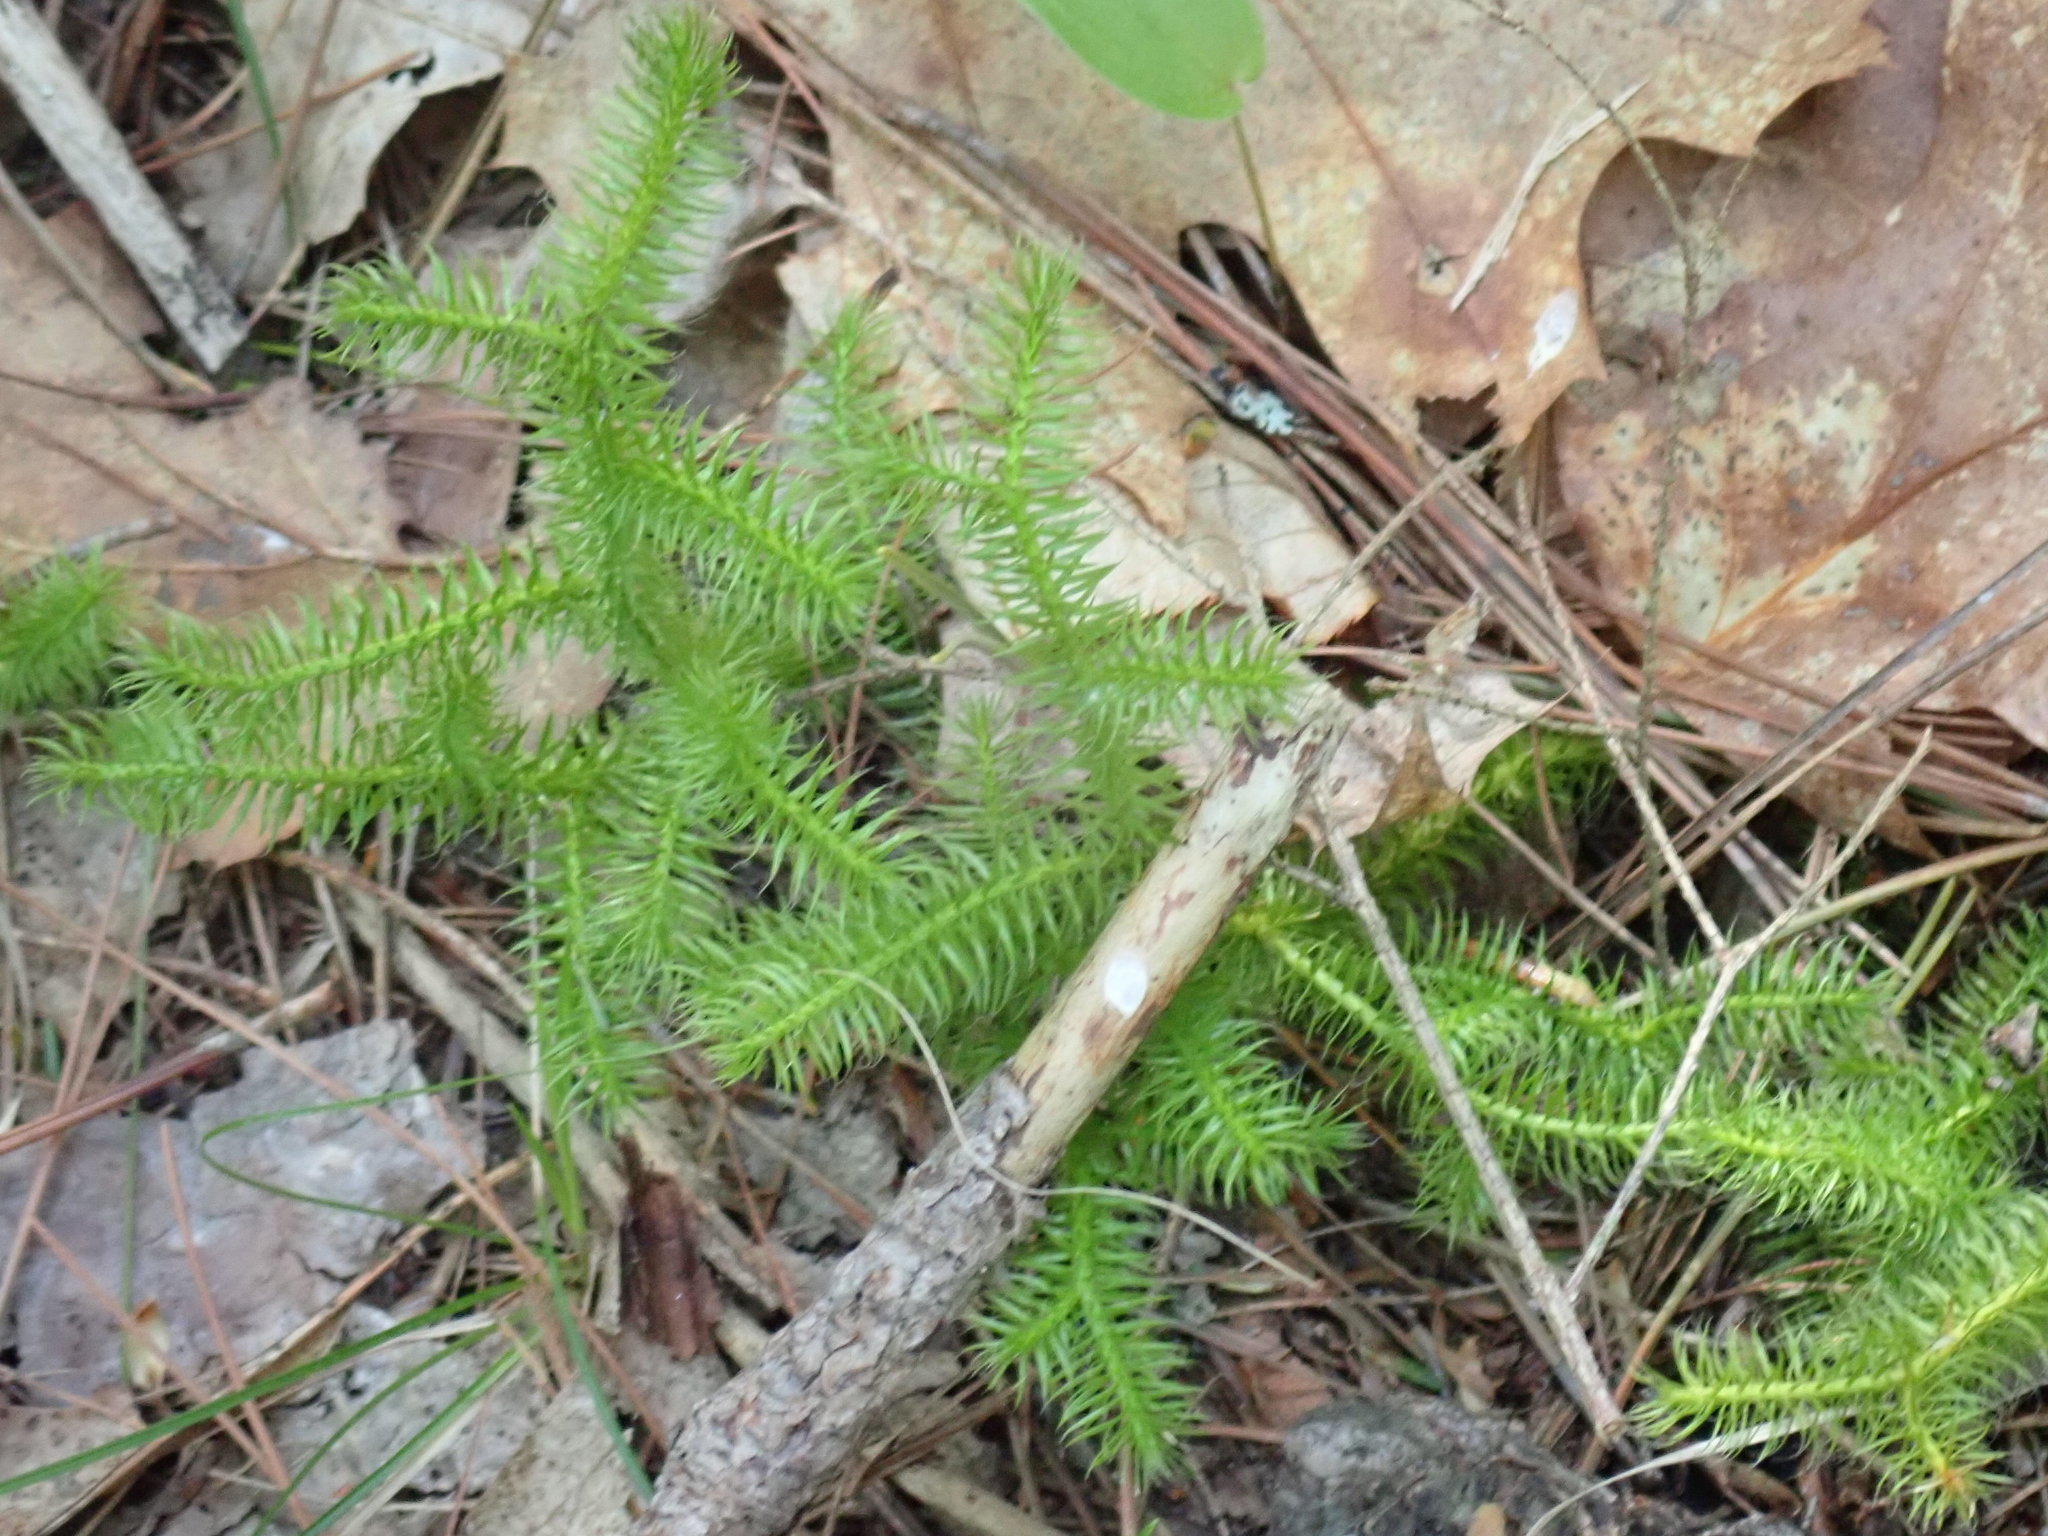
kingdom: Plantae
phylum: Tracheophyta
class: Lycopodiopsida
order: Lycopodiales
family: Lycopodiaceae
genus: Lycopodium
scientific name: Lycopodium clavatum
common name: Stag's-horn clubmoss
